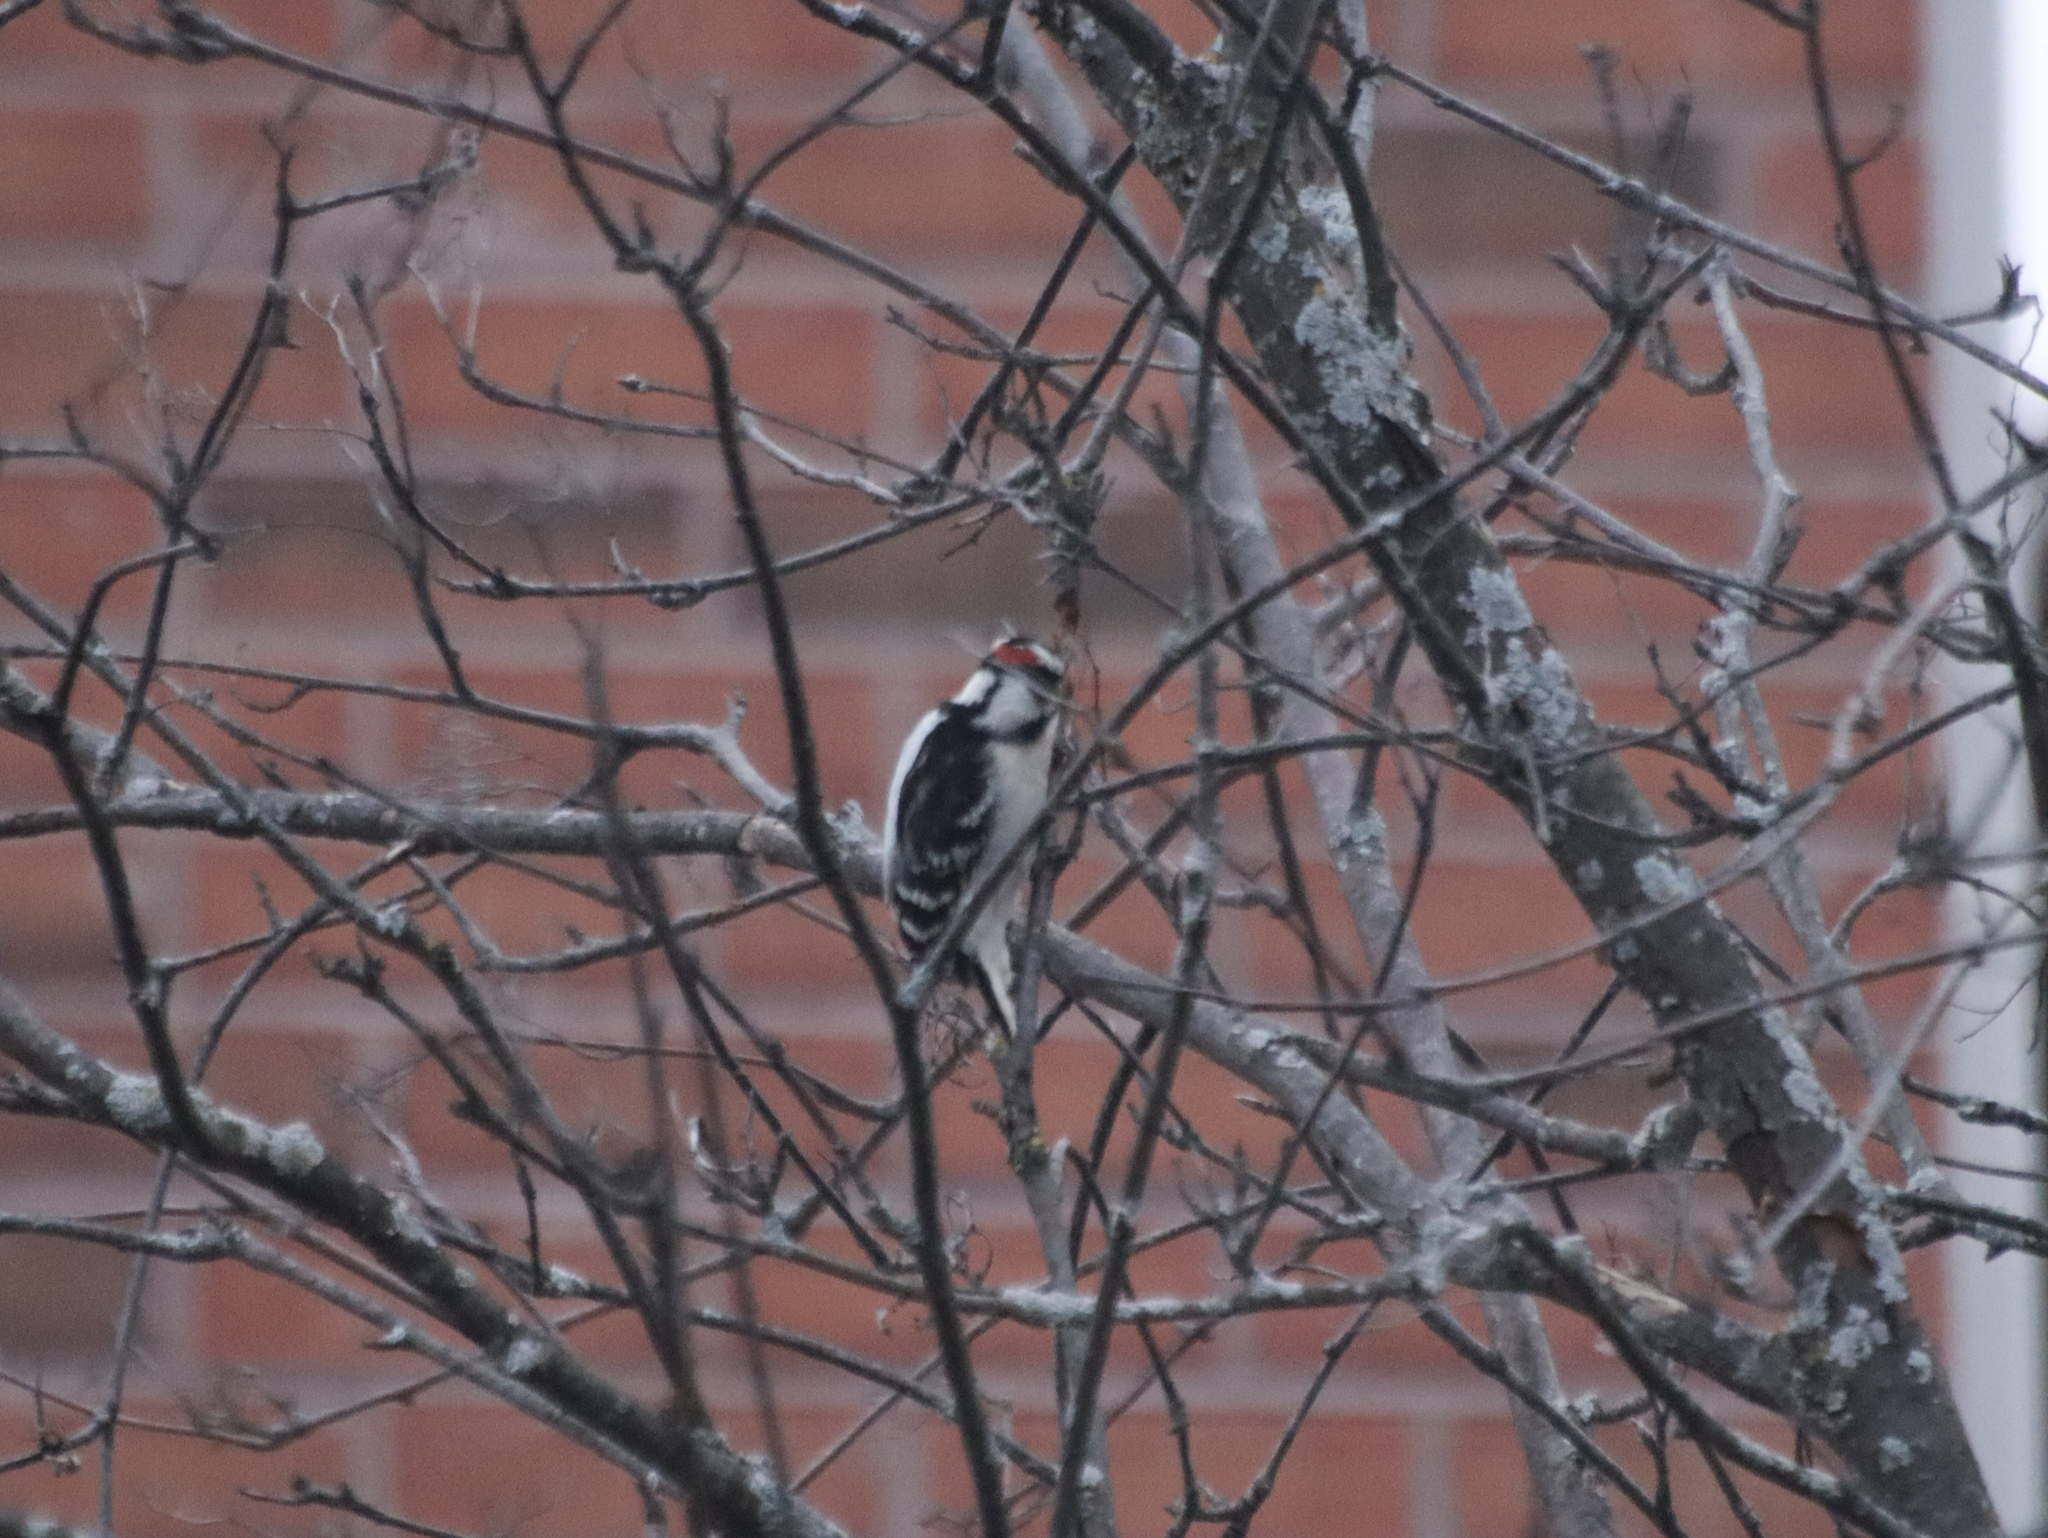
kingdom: Animalia
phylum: Chordata
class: Aves
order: Piciformes
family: Picidae
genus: Leuconotopicus
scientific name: Leuconotopicus villosus
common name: Hairy woodpecker
